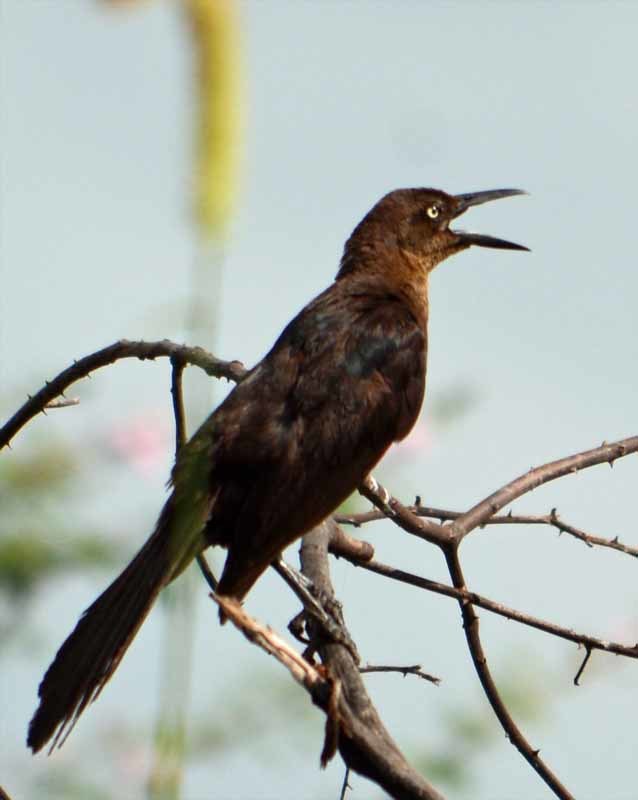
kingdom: Animalia
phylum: Chordata
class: Aves
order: Passeriformes
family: Icteridae
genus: Quiscalus
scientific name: Quiscalus mexicanus
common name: Great-tailed grackle
